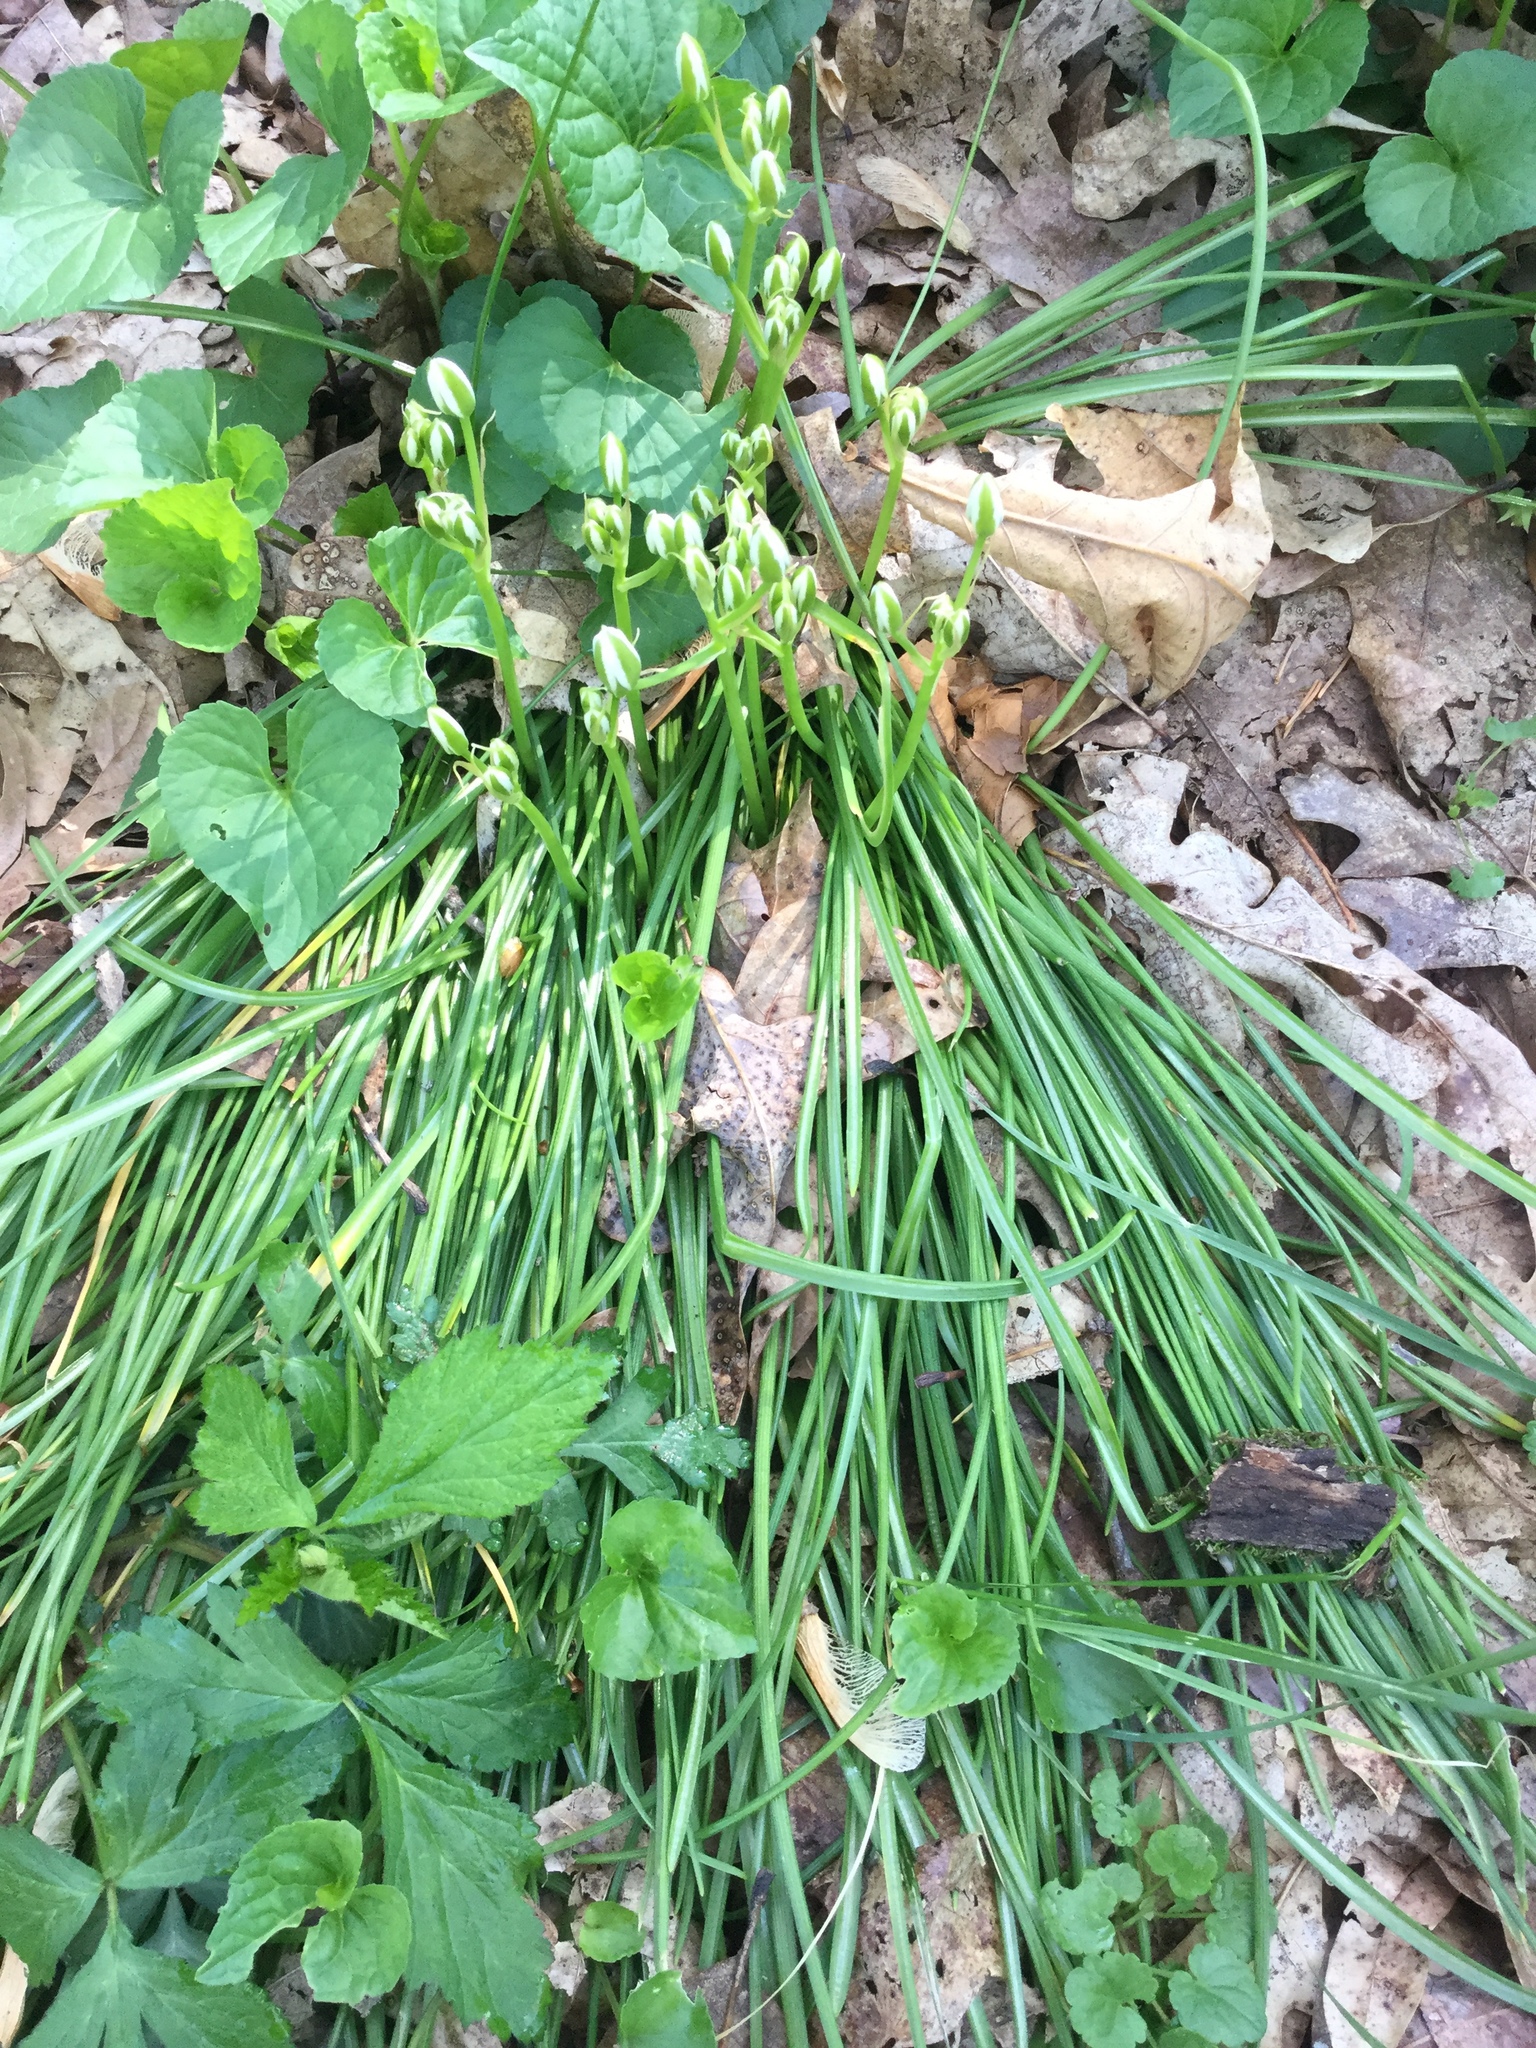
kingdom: Plantae
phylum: Tracheophyta
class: Liliopsida
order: Asparagales
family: Asparagaceae
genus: Ornithogalum
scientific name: Ornithogalum umbellatum
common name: Garden star-of-bethlehem
